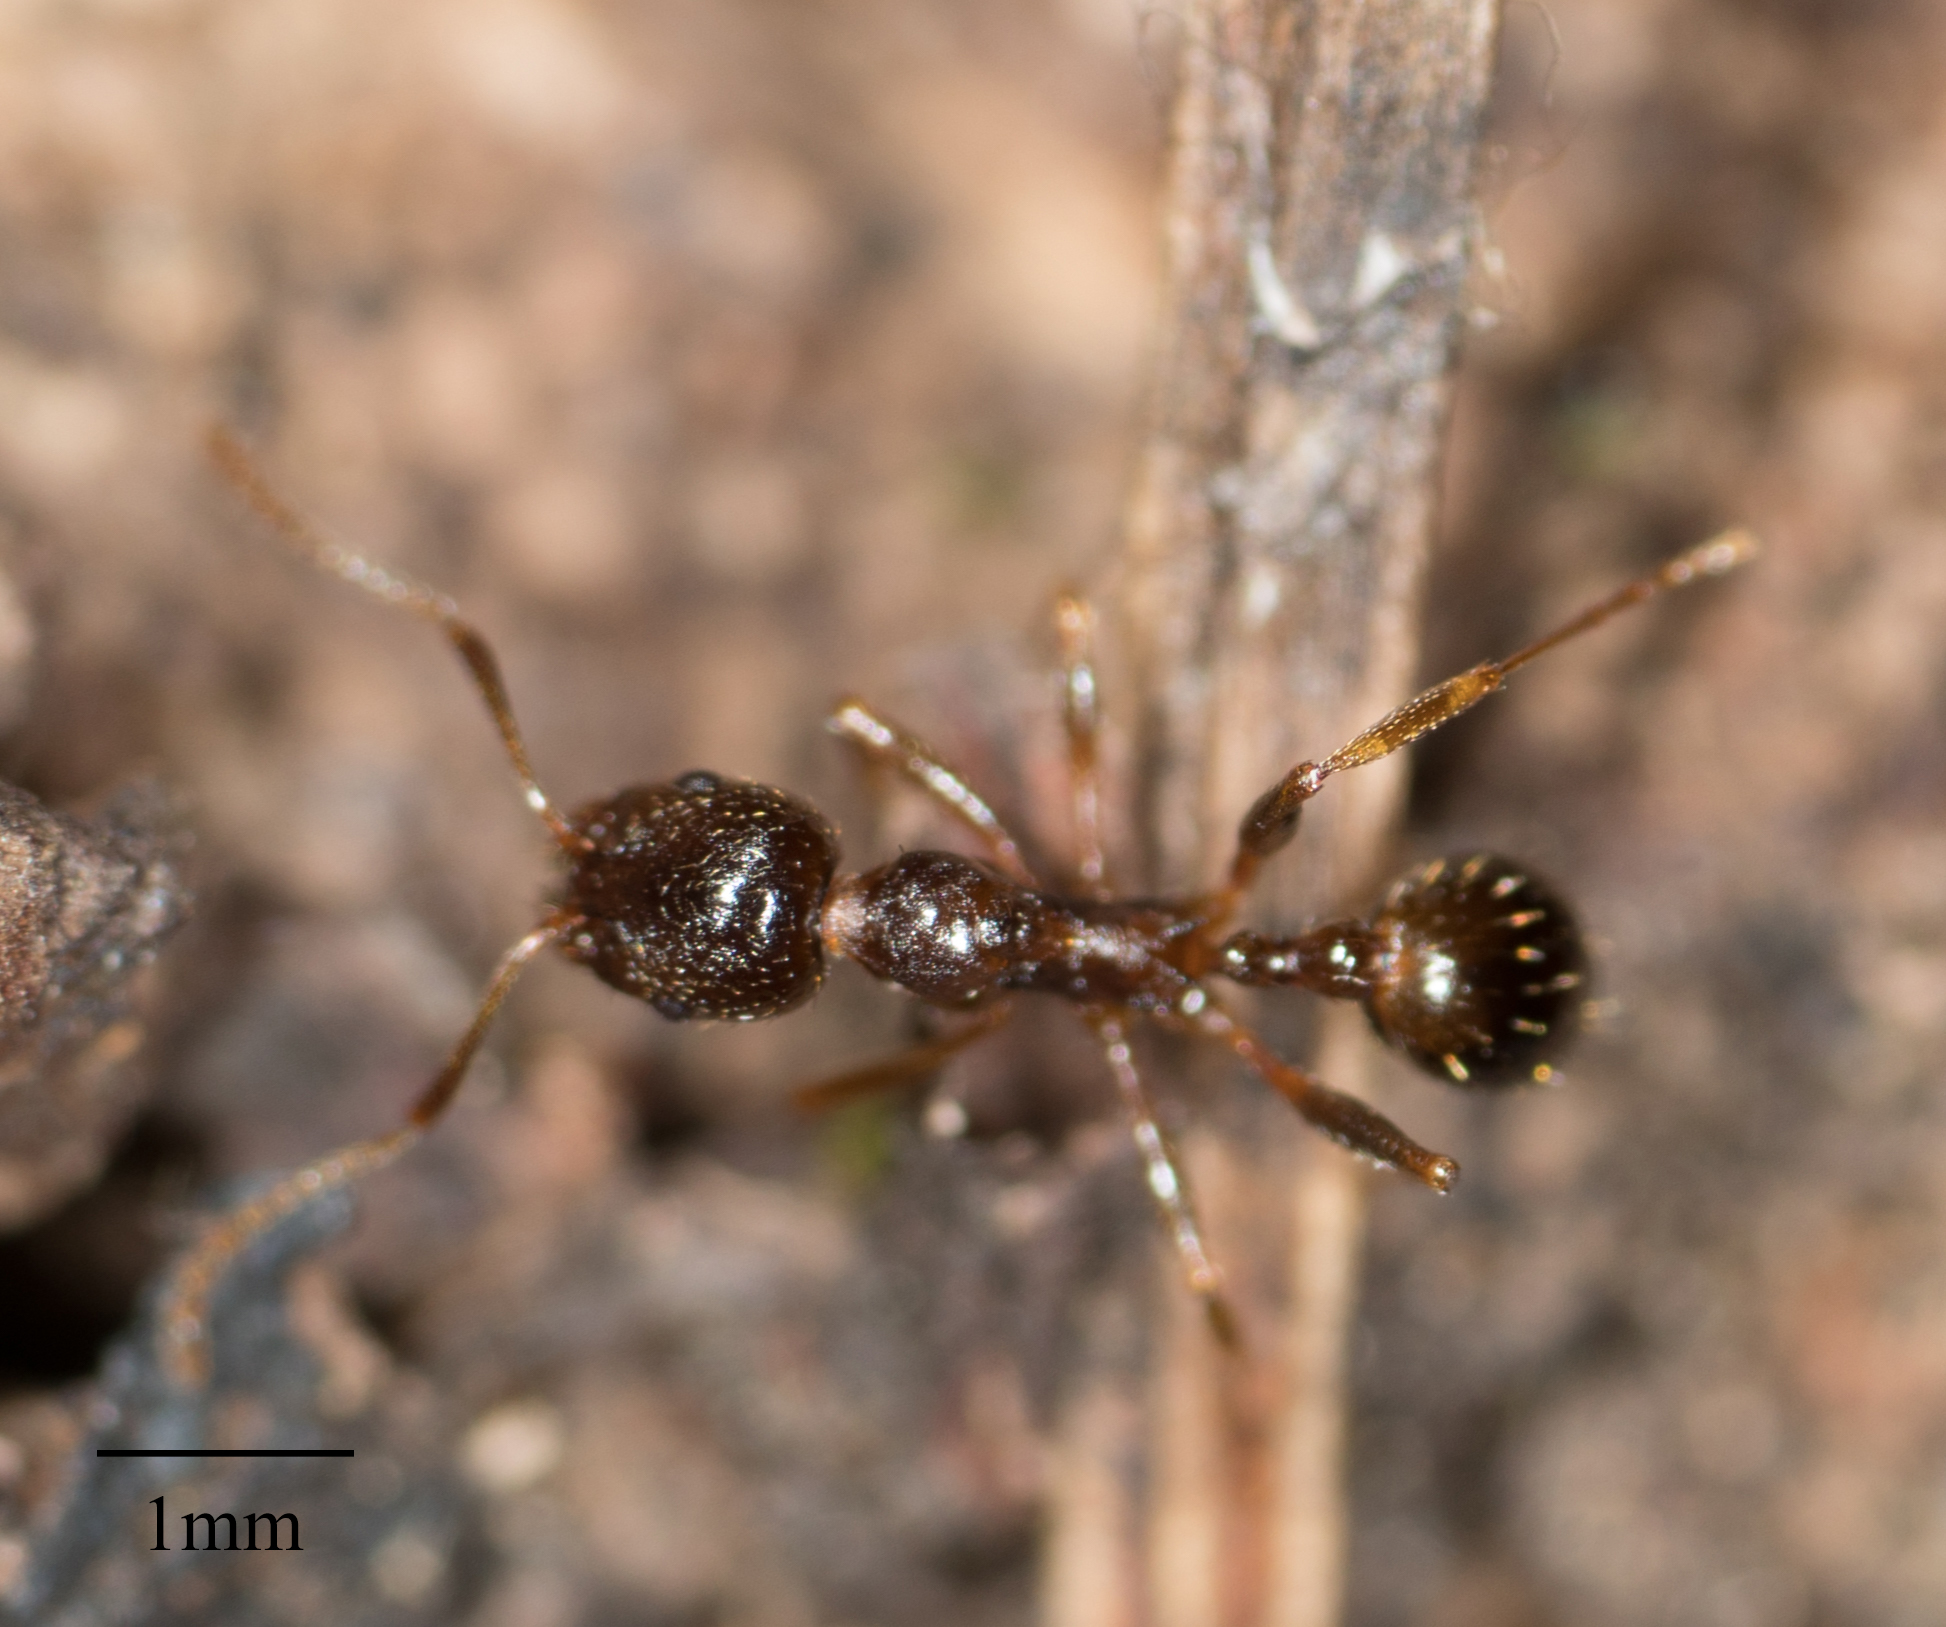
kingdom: Animalia
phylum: Arthropoda
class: Insecta
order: Hymenoptera
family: Formicidae
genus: Aphaenogaster
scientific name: Aphaenogaster occidentalis
